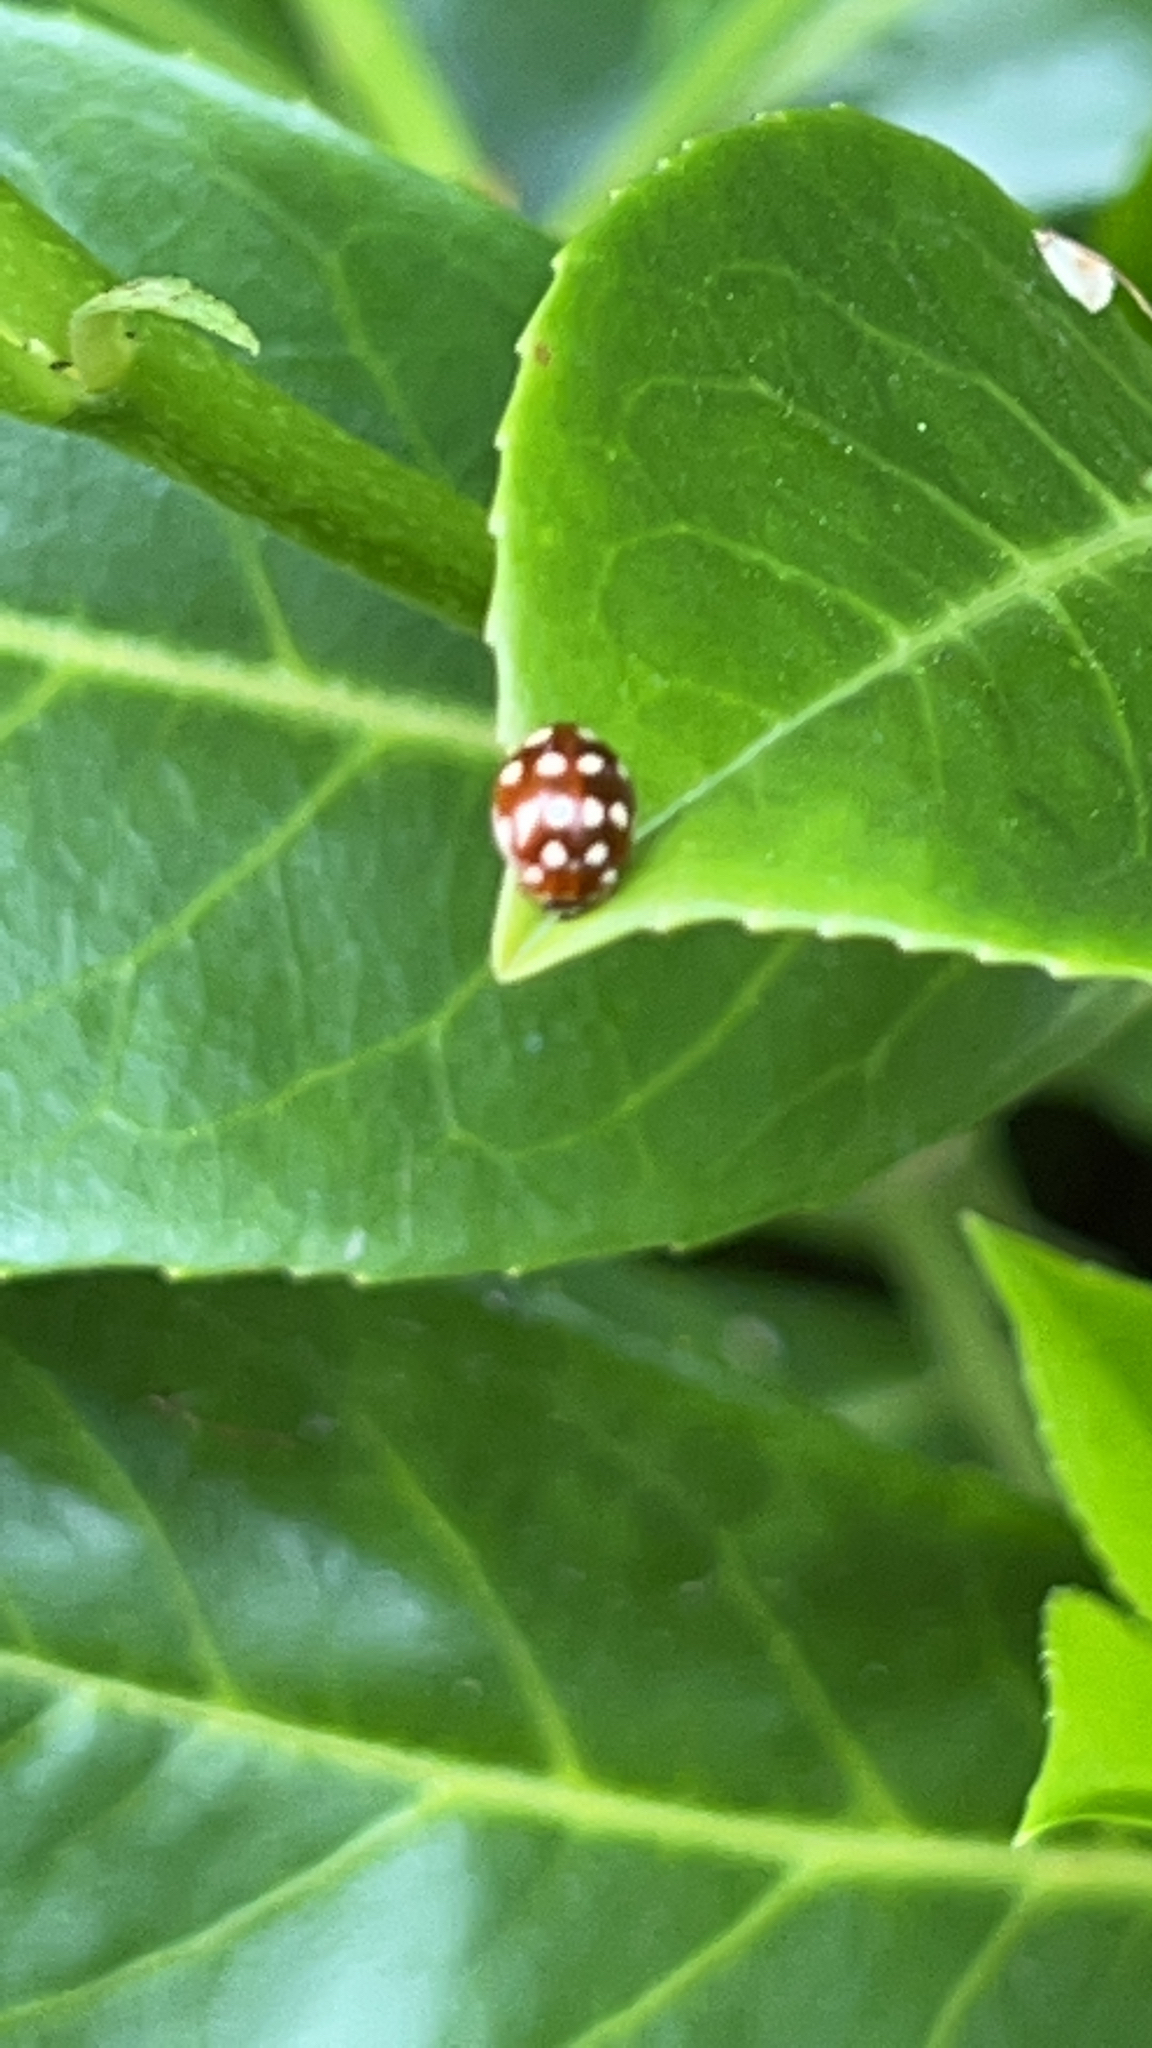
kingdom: Animalia
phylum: Arthropoda
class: Insecta
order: Coleoptera
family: Coccinellidae
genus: Calvia
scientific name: Calvia quatuordecimguttata
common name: Cream-spot ladybird
